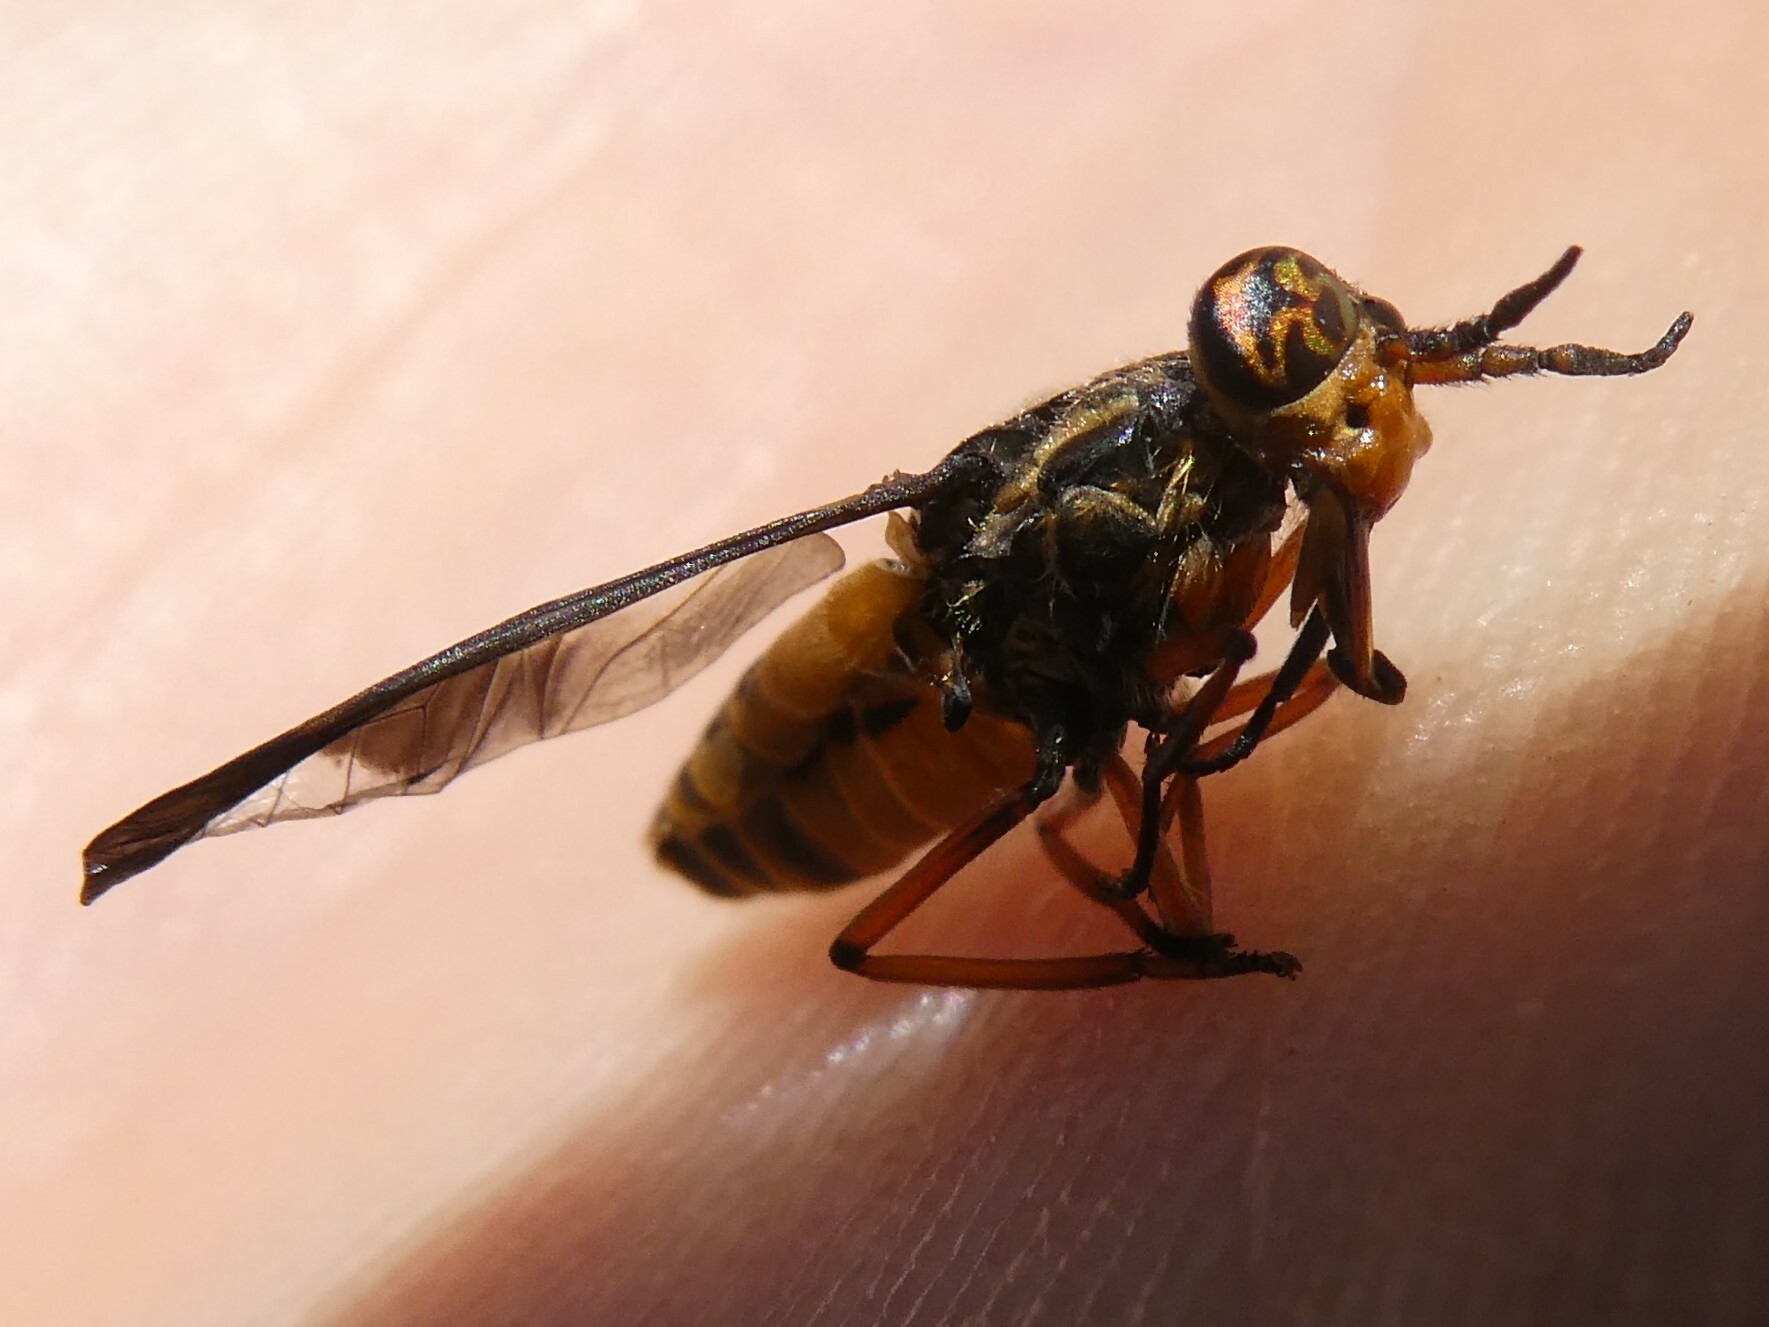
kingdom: Animalia
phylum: Arthropoda
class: Insecta
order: Diptera
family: Tabanidae
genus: Chrysops
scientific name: Chrysops indus
